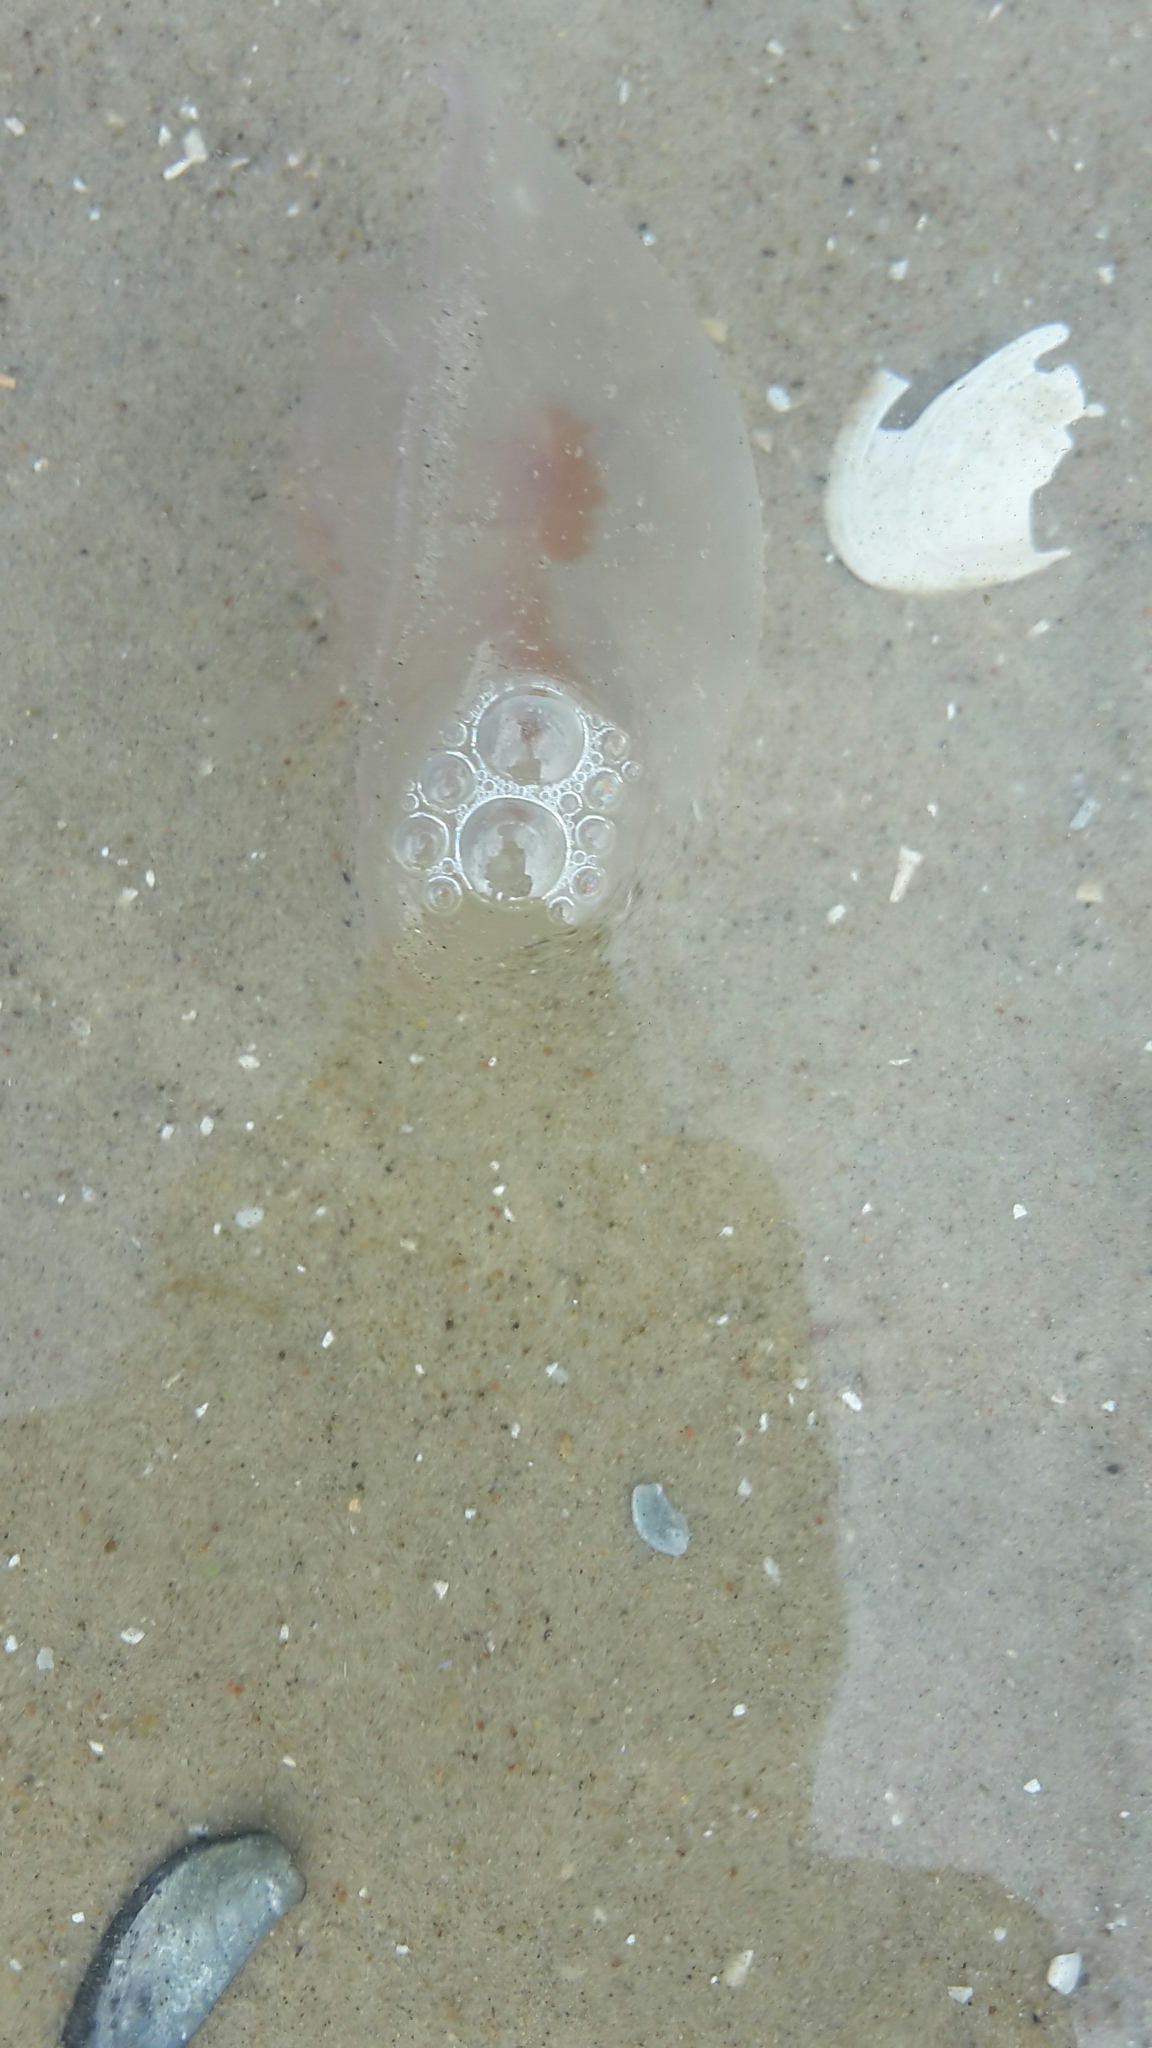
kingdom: Animalia
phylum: Cnidaria
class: Scyphozoa
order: Semaeostomeae
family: Ulmaridae
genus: Aurelia
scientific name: Aurelia aurita
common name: Moon jellyfish
